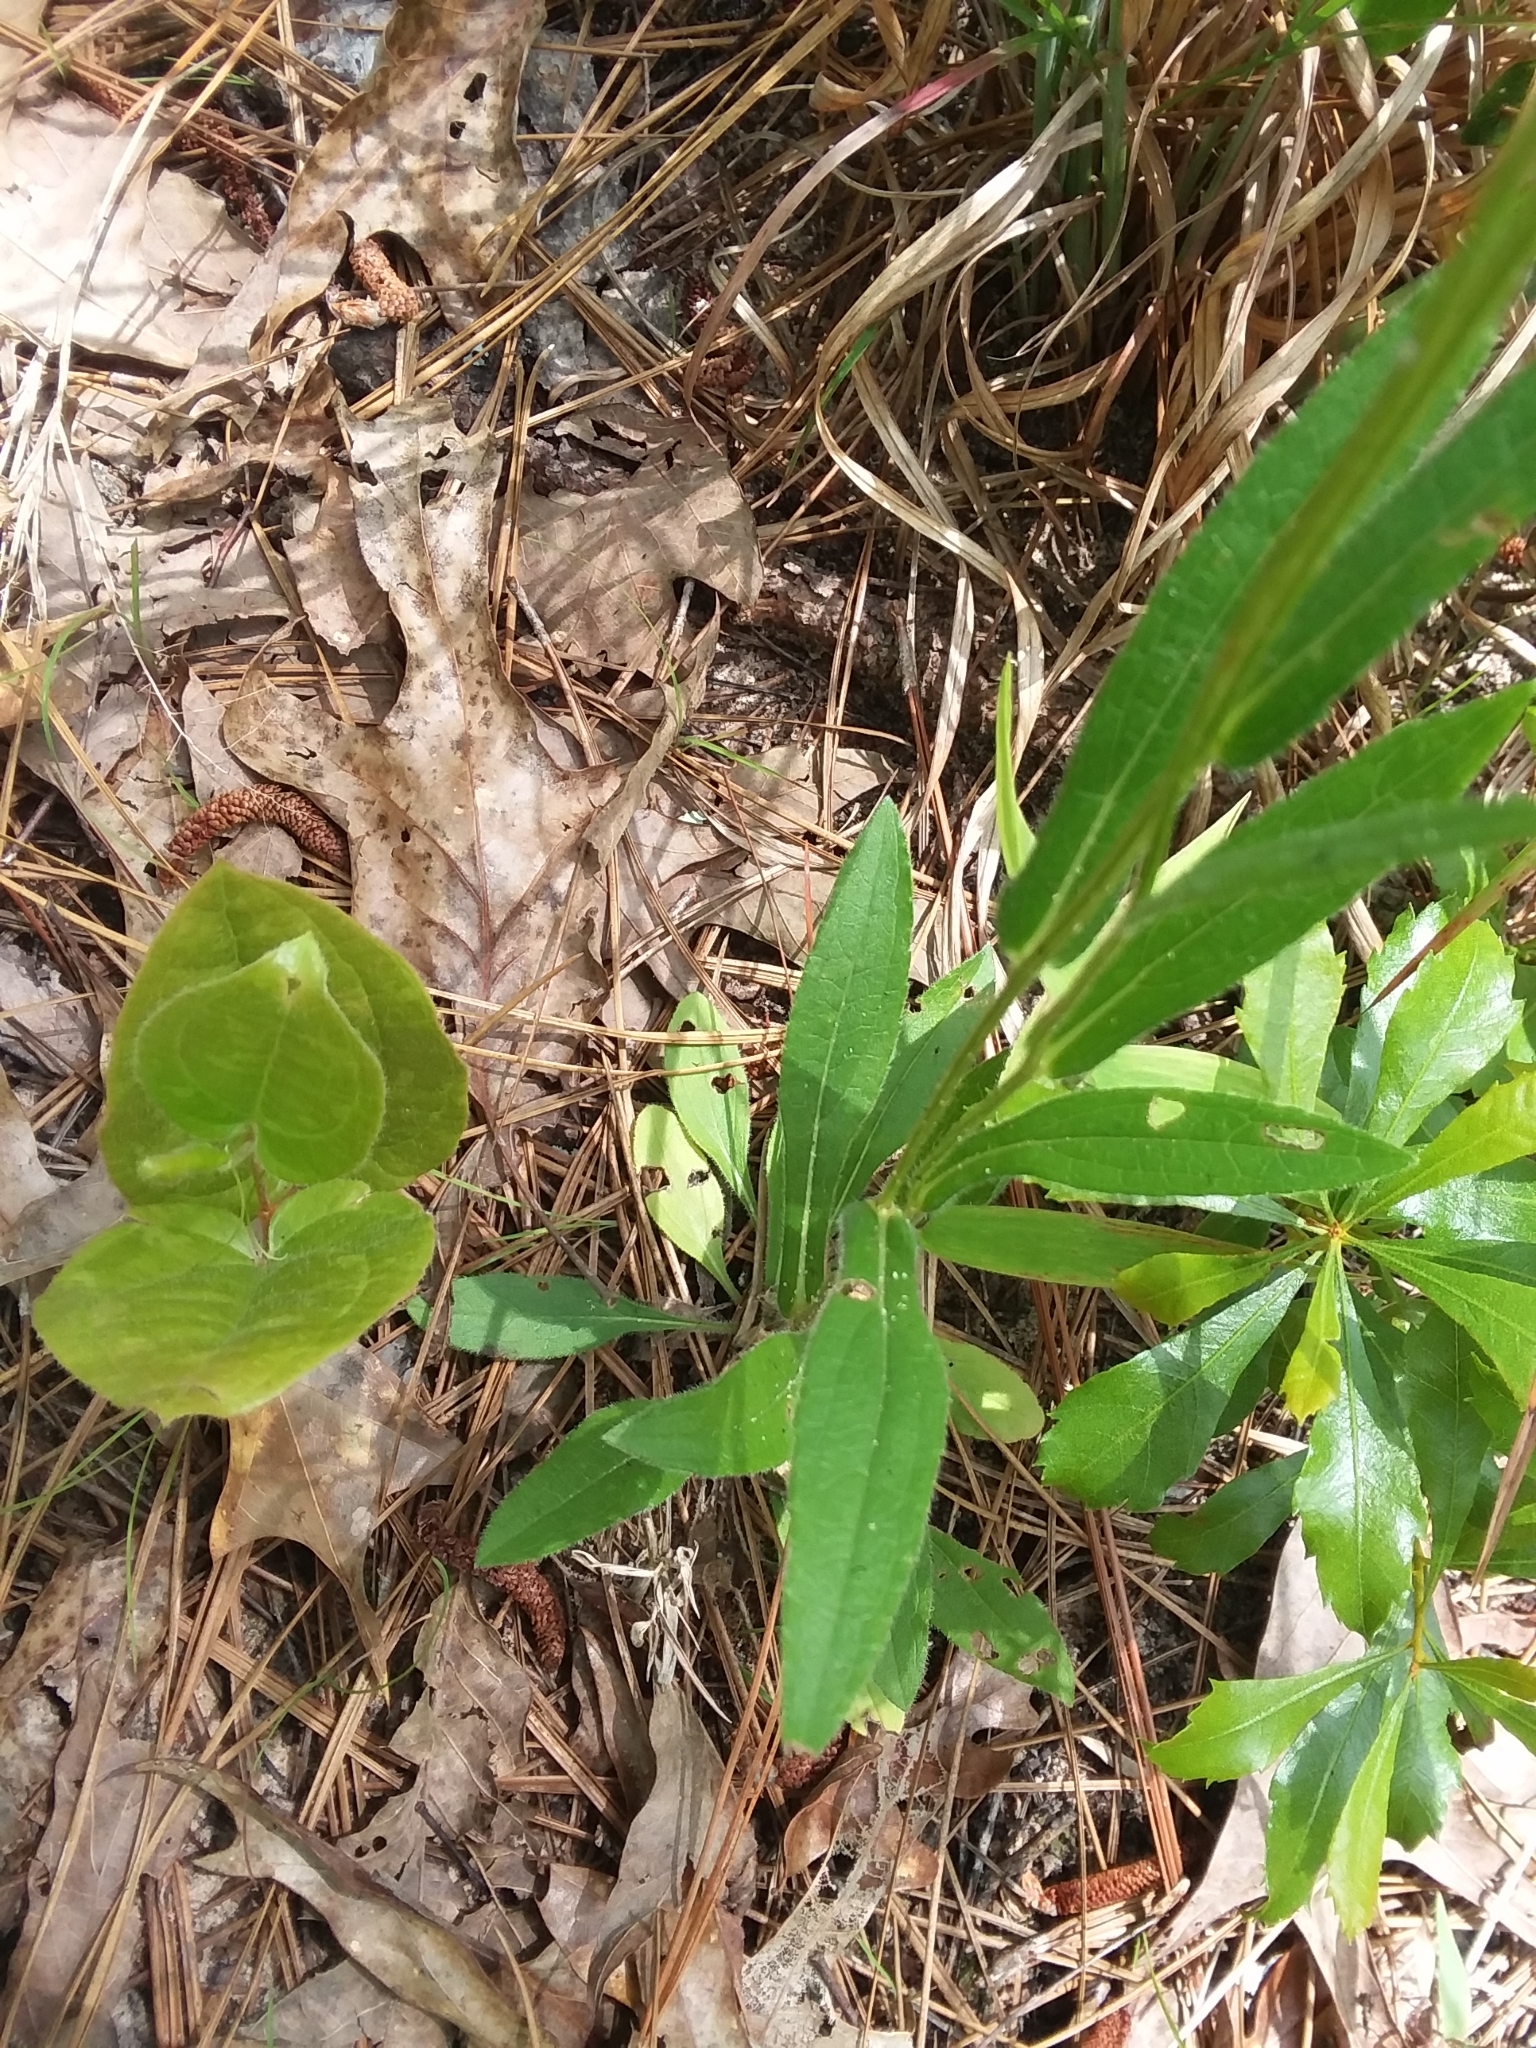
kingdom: Plantae
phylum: Tracheophyta
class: Magnoliopsida
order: Asterales
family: Asteraceae
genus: Rudbeckia
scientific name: Rudbeckia hirta
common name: Black-eyed-susan
